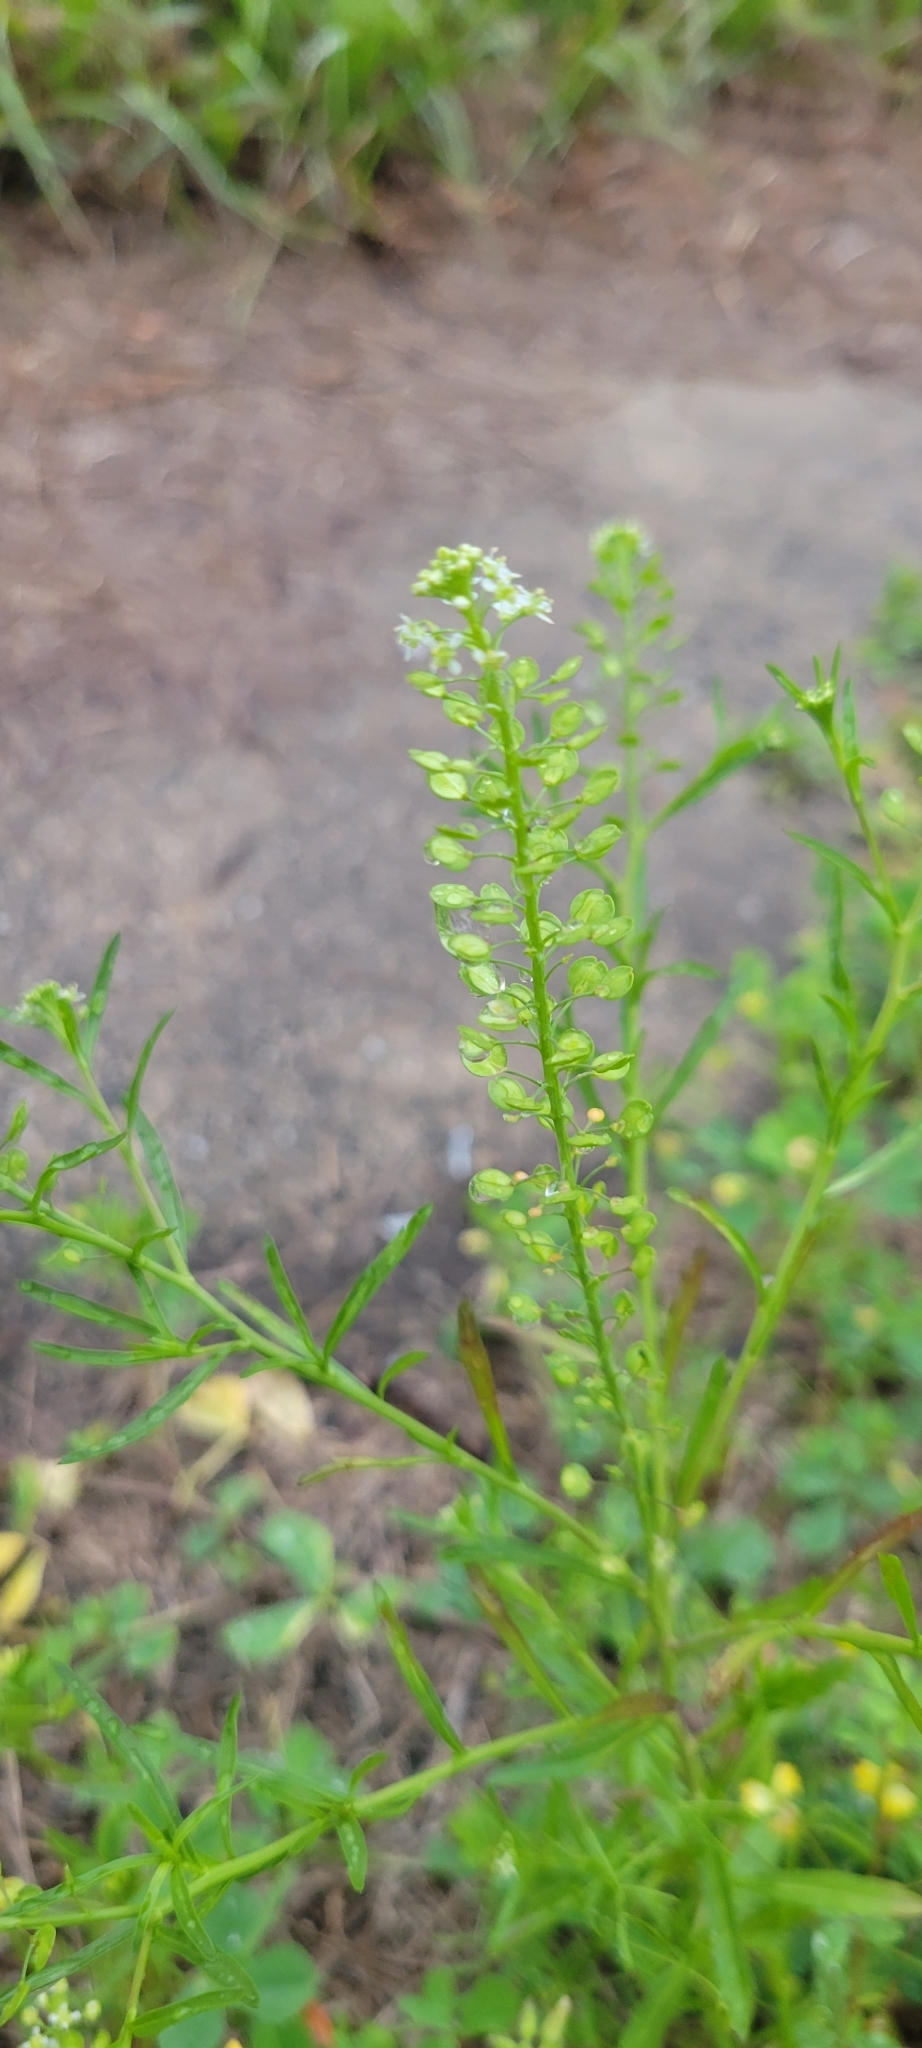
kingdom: Plantae
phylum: Tracheophyta
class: Magnoliopsida
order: Brassicales
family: Brassicaceae
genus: Lepidium
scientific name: Lepidium virginicum
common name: Least pepperwort
